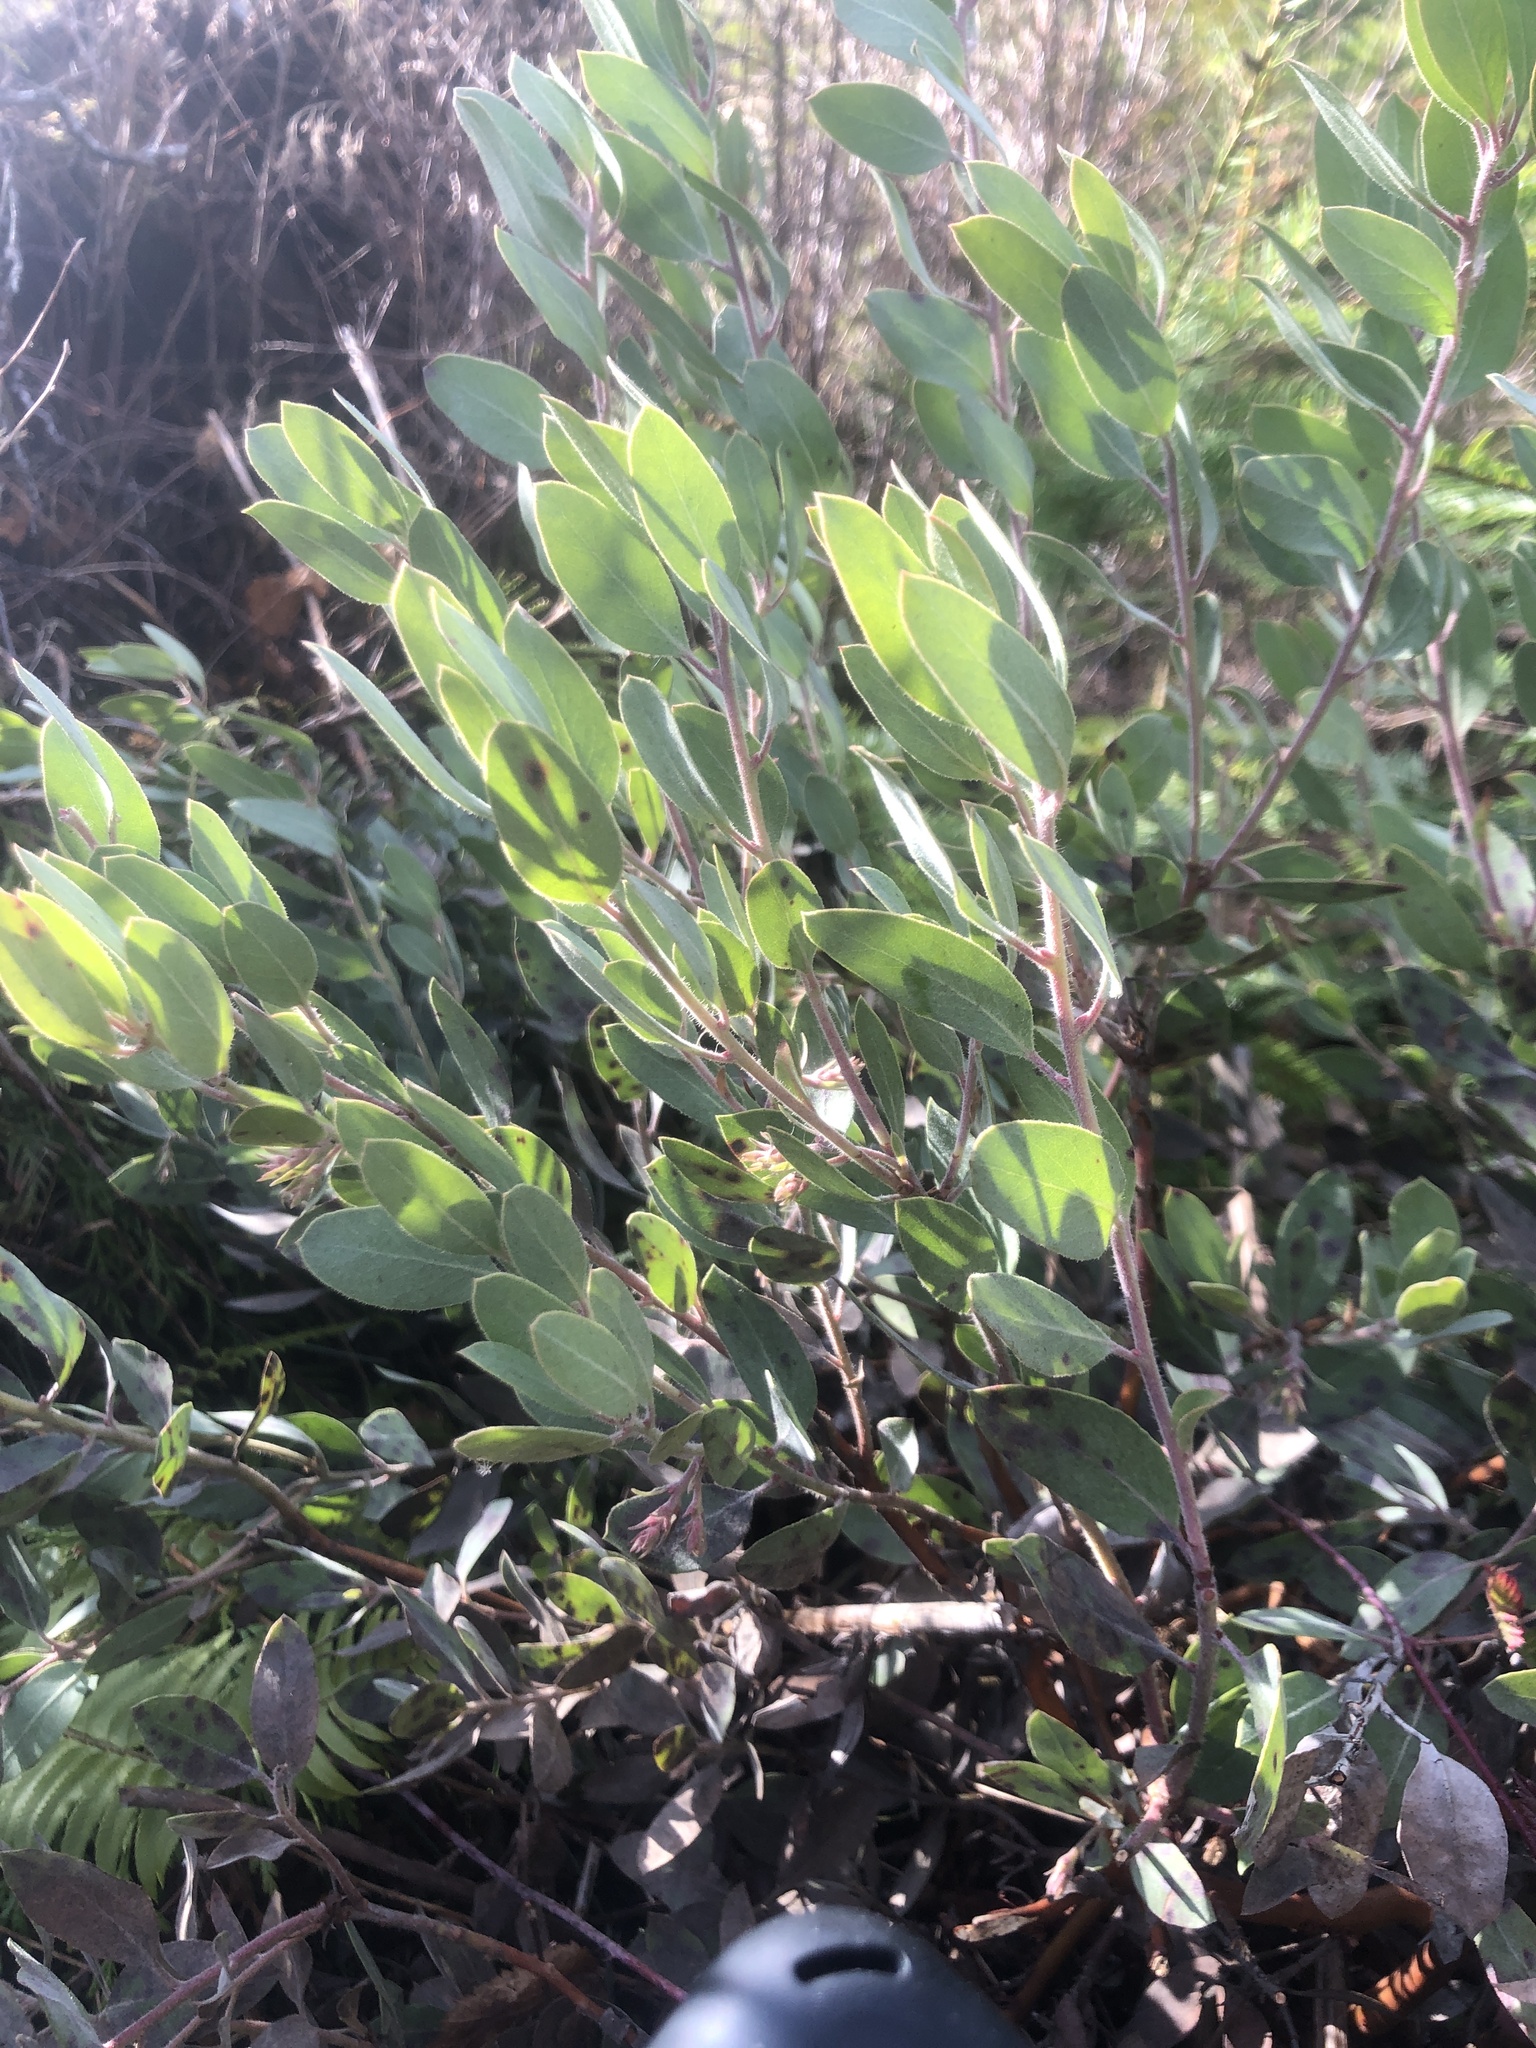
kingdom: Plantae
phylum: Tracheophyta
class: Magnoliopsida
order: Ericales
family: Ericaceae
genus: Arctostaphylos
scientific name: Arctostaphylos columbiana
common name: Bristly bearberry
